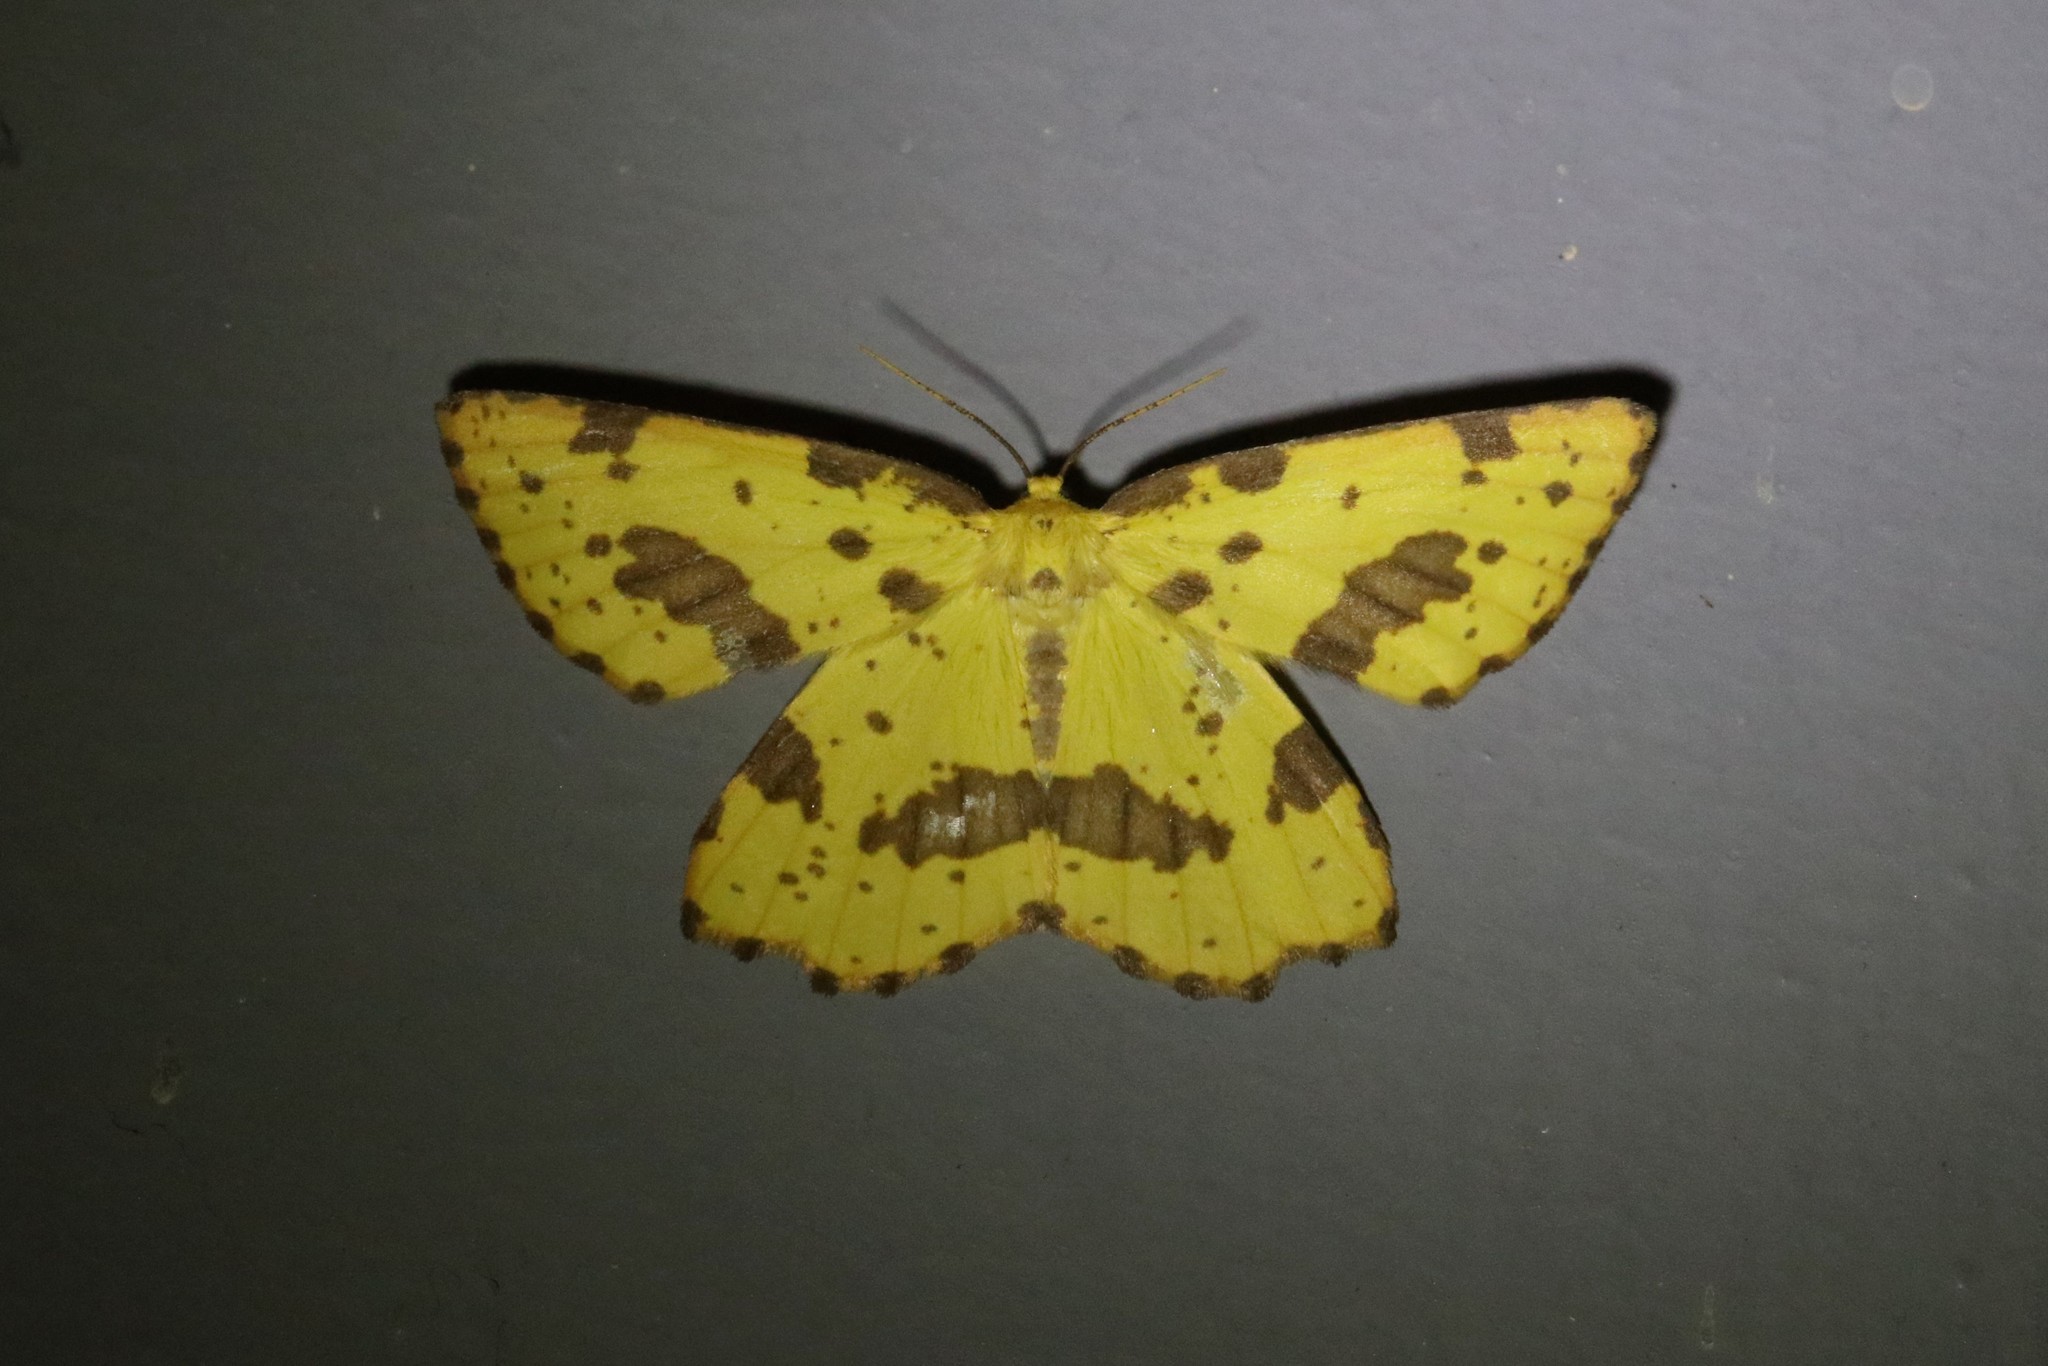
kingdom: Animalia
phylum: Arthropoda
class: Insecta
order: Lepidoptera
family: Geometridae
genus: Xanthotype
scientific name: Xanthotype
